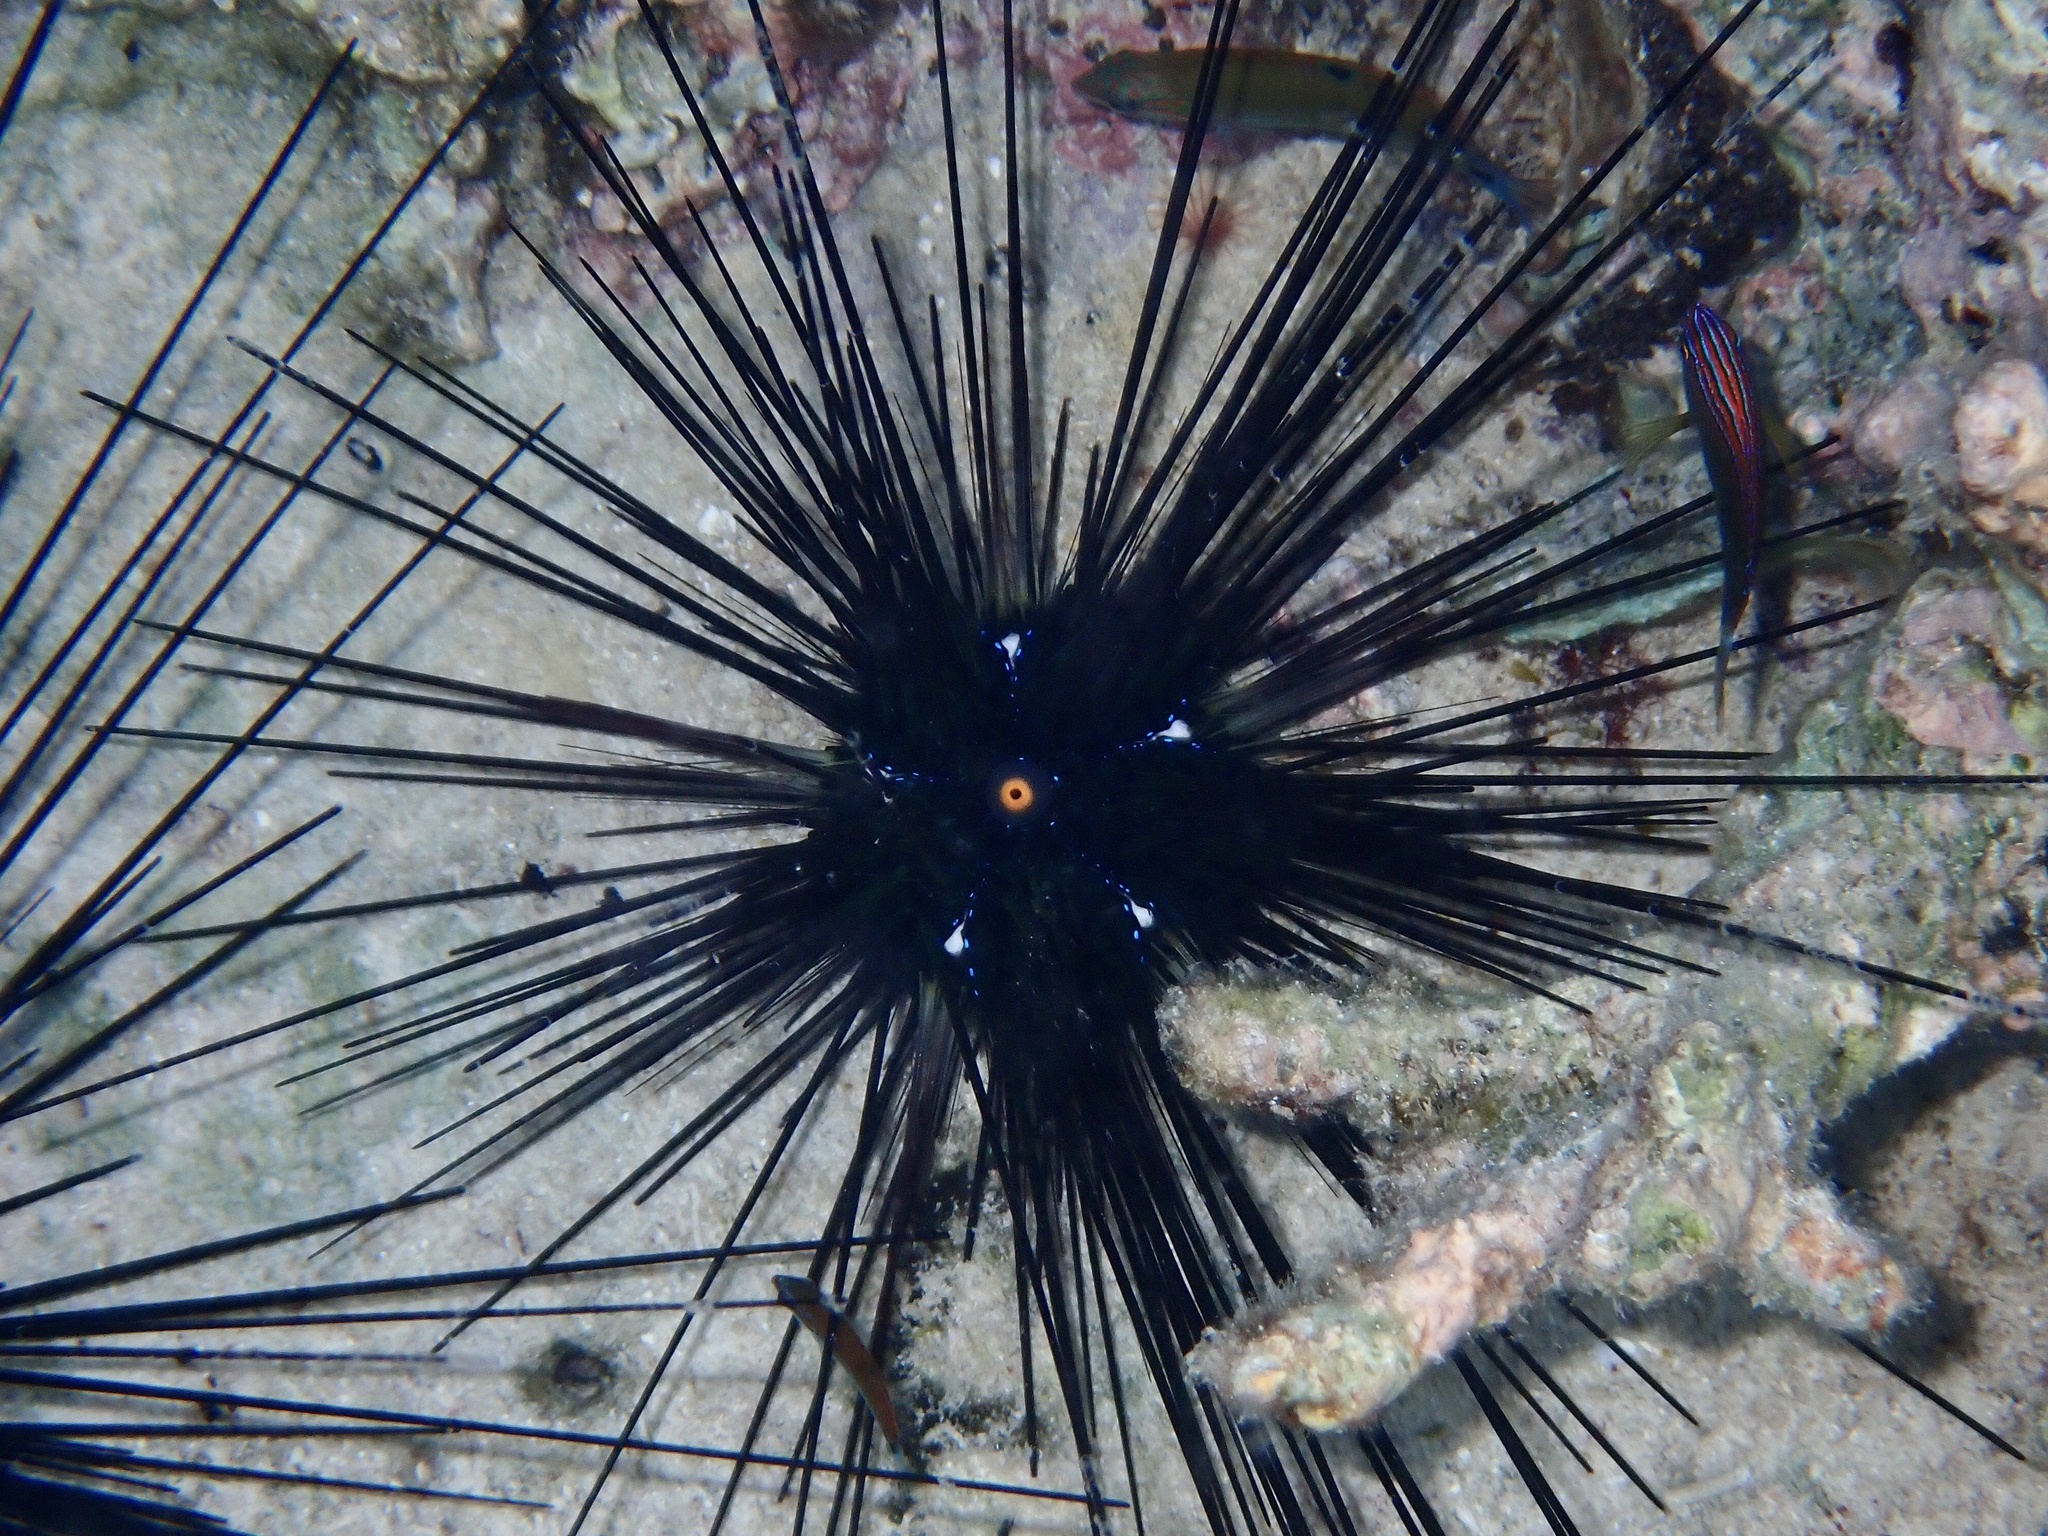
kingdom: Animalia
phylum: Echinodermata
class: Echinoidea
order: Diadematoida
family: Diadematidae
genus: Diadema
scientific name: Diadema setosum
